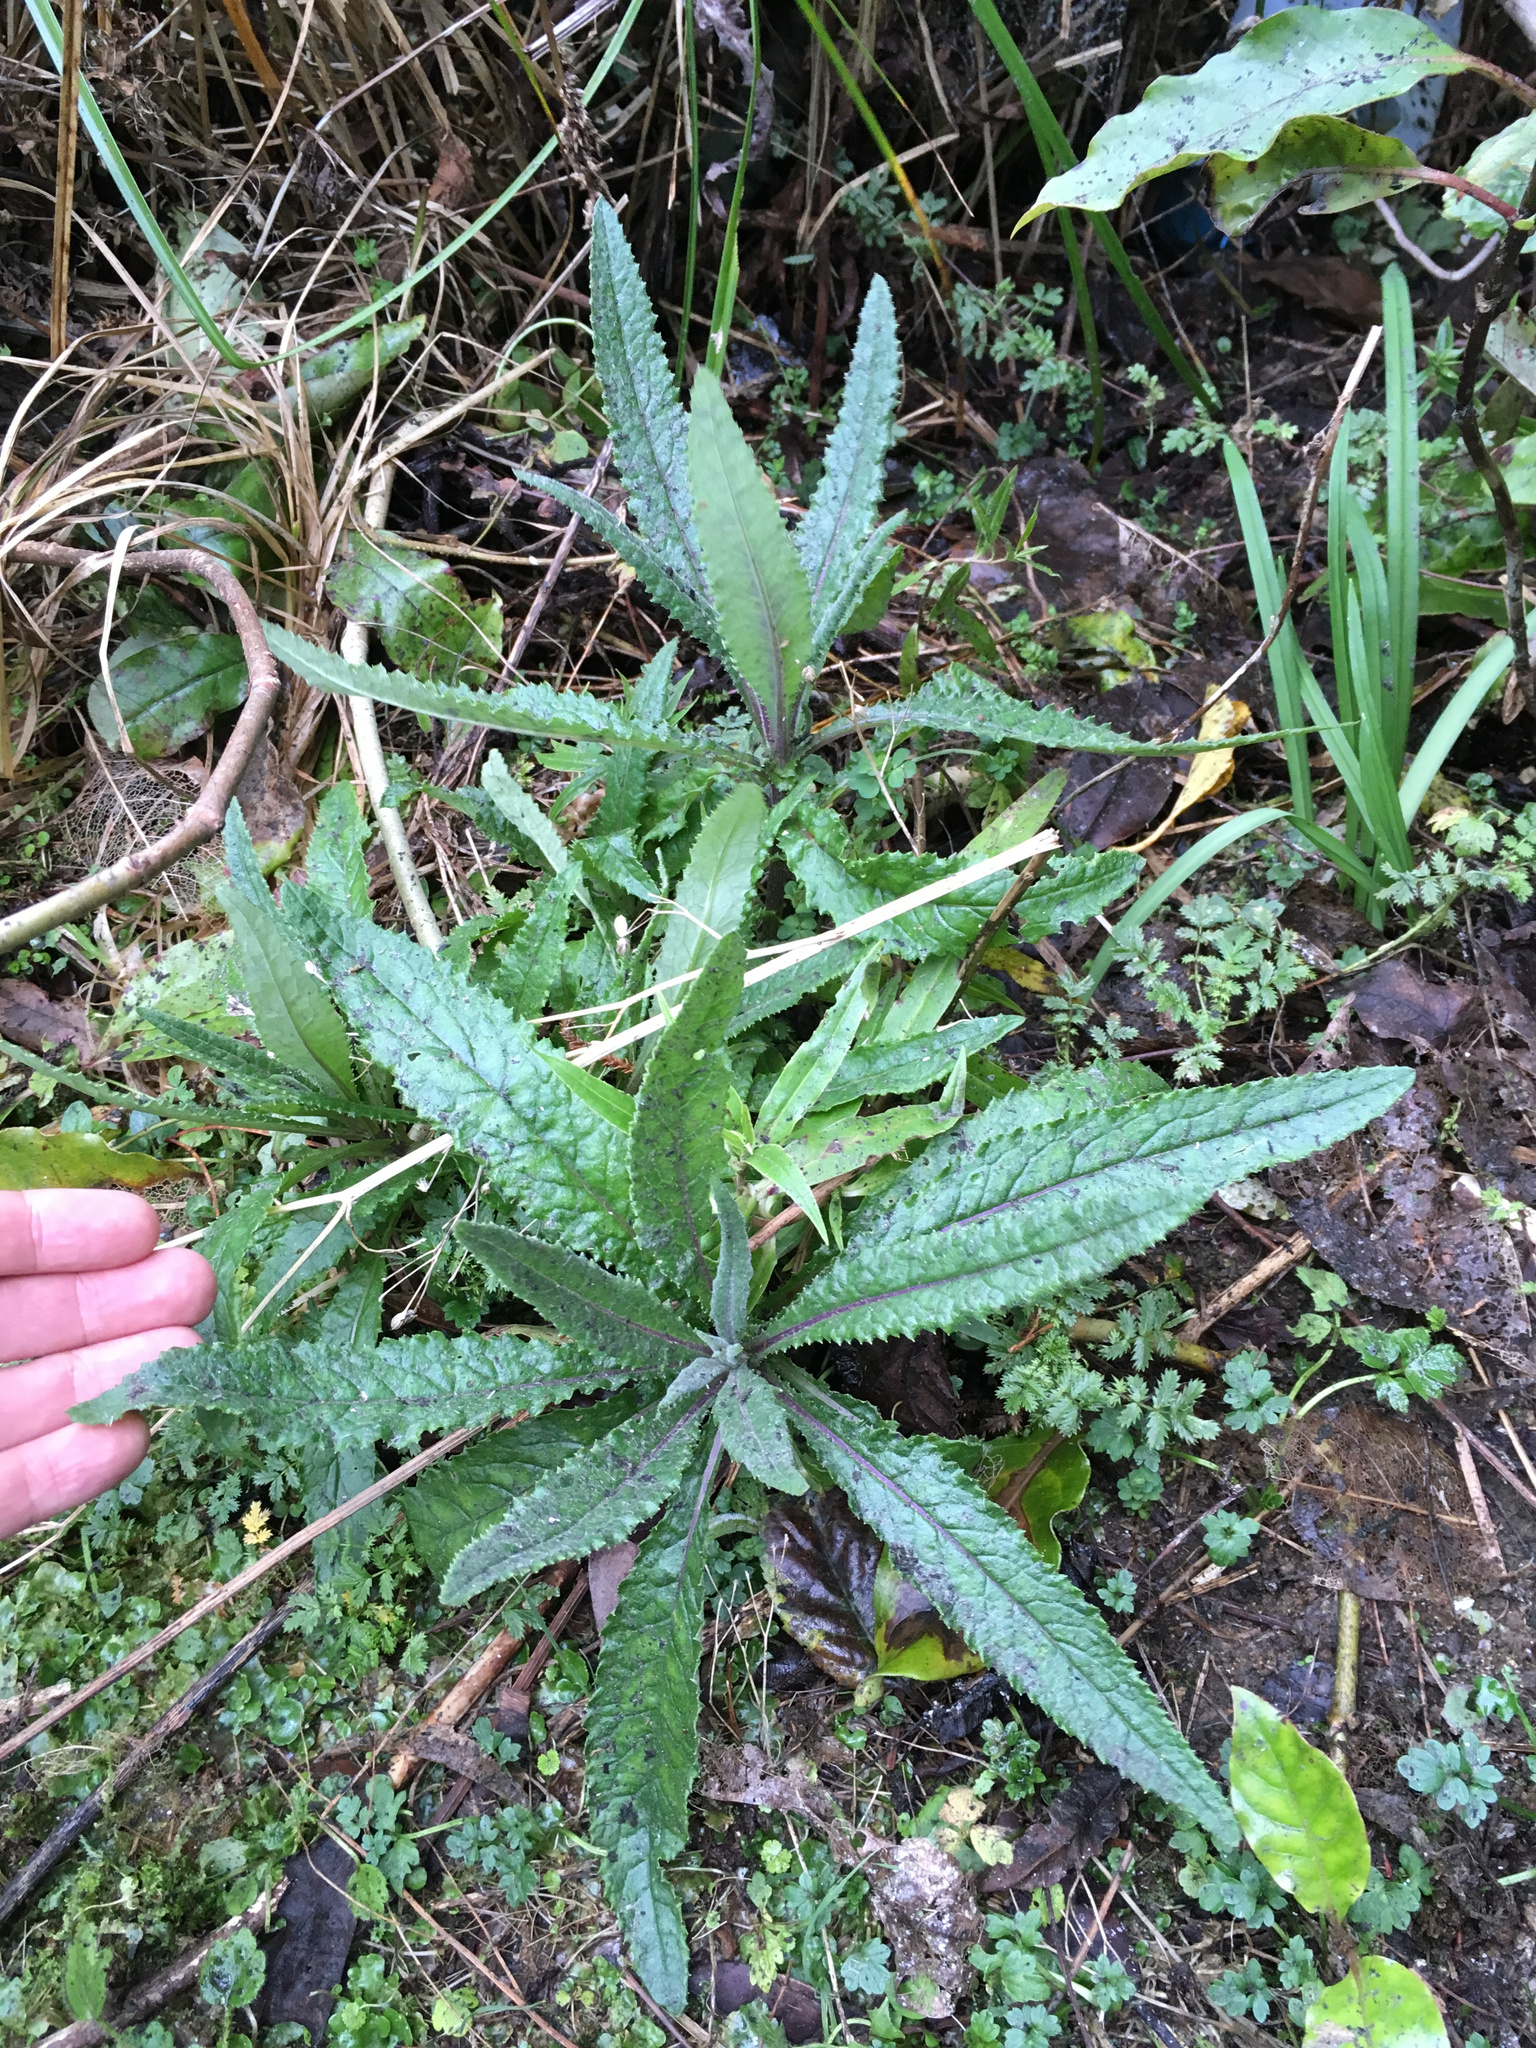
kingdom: Plantae
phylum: Tracheophyta
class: Magnoliopsida
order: Asterales
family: Asteraceae
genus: Senecio
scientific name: Senecio minimus
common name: Toothed fireweed
